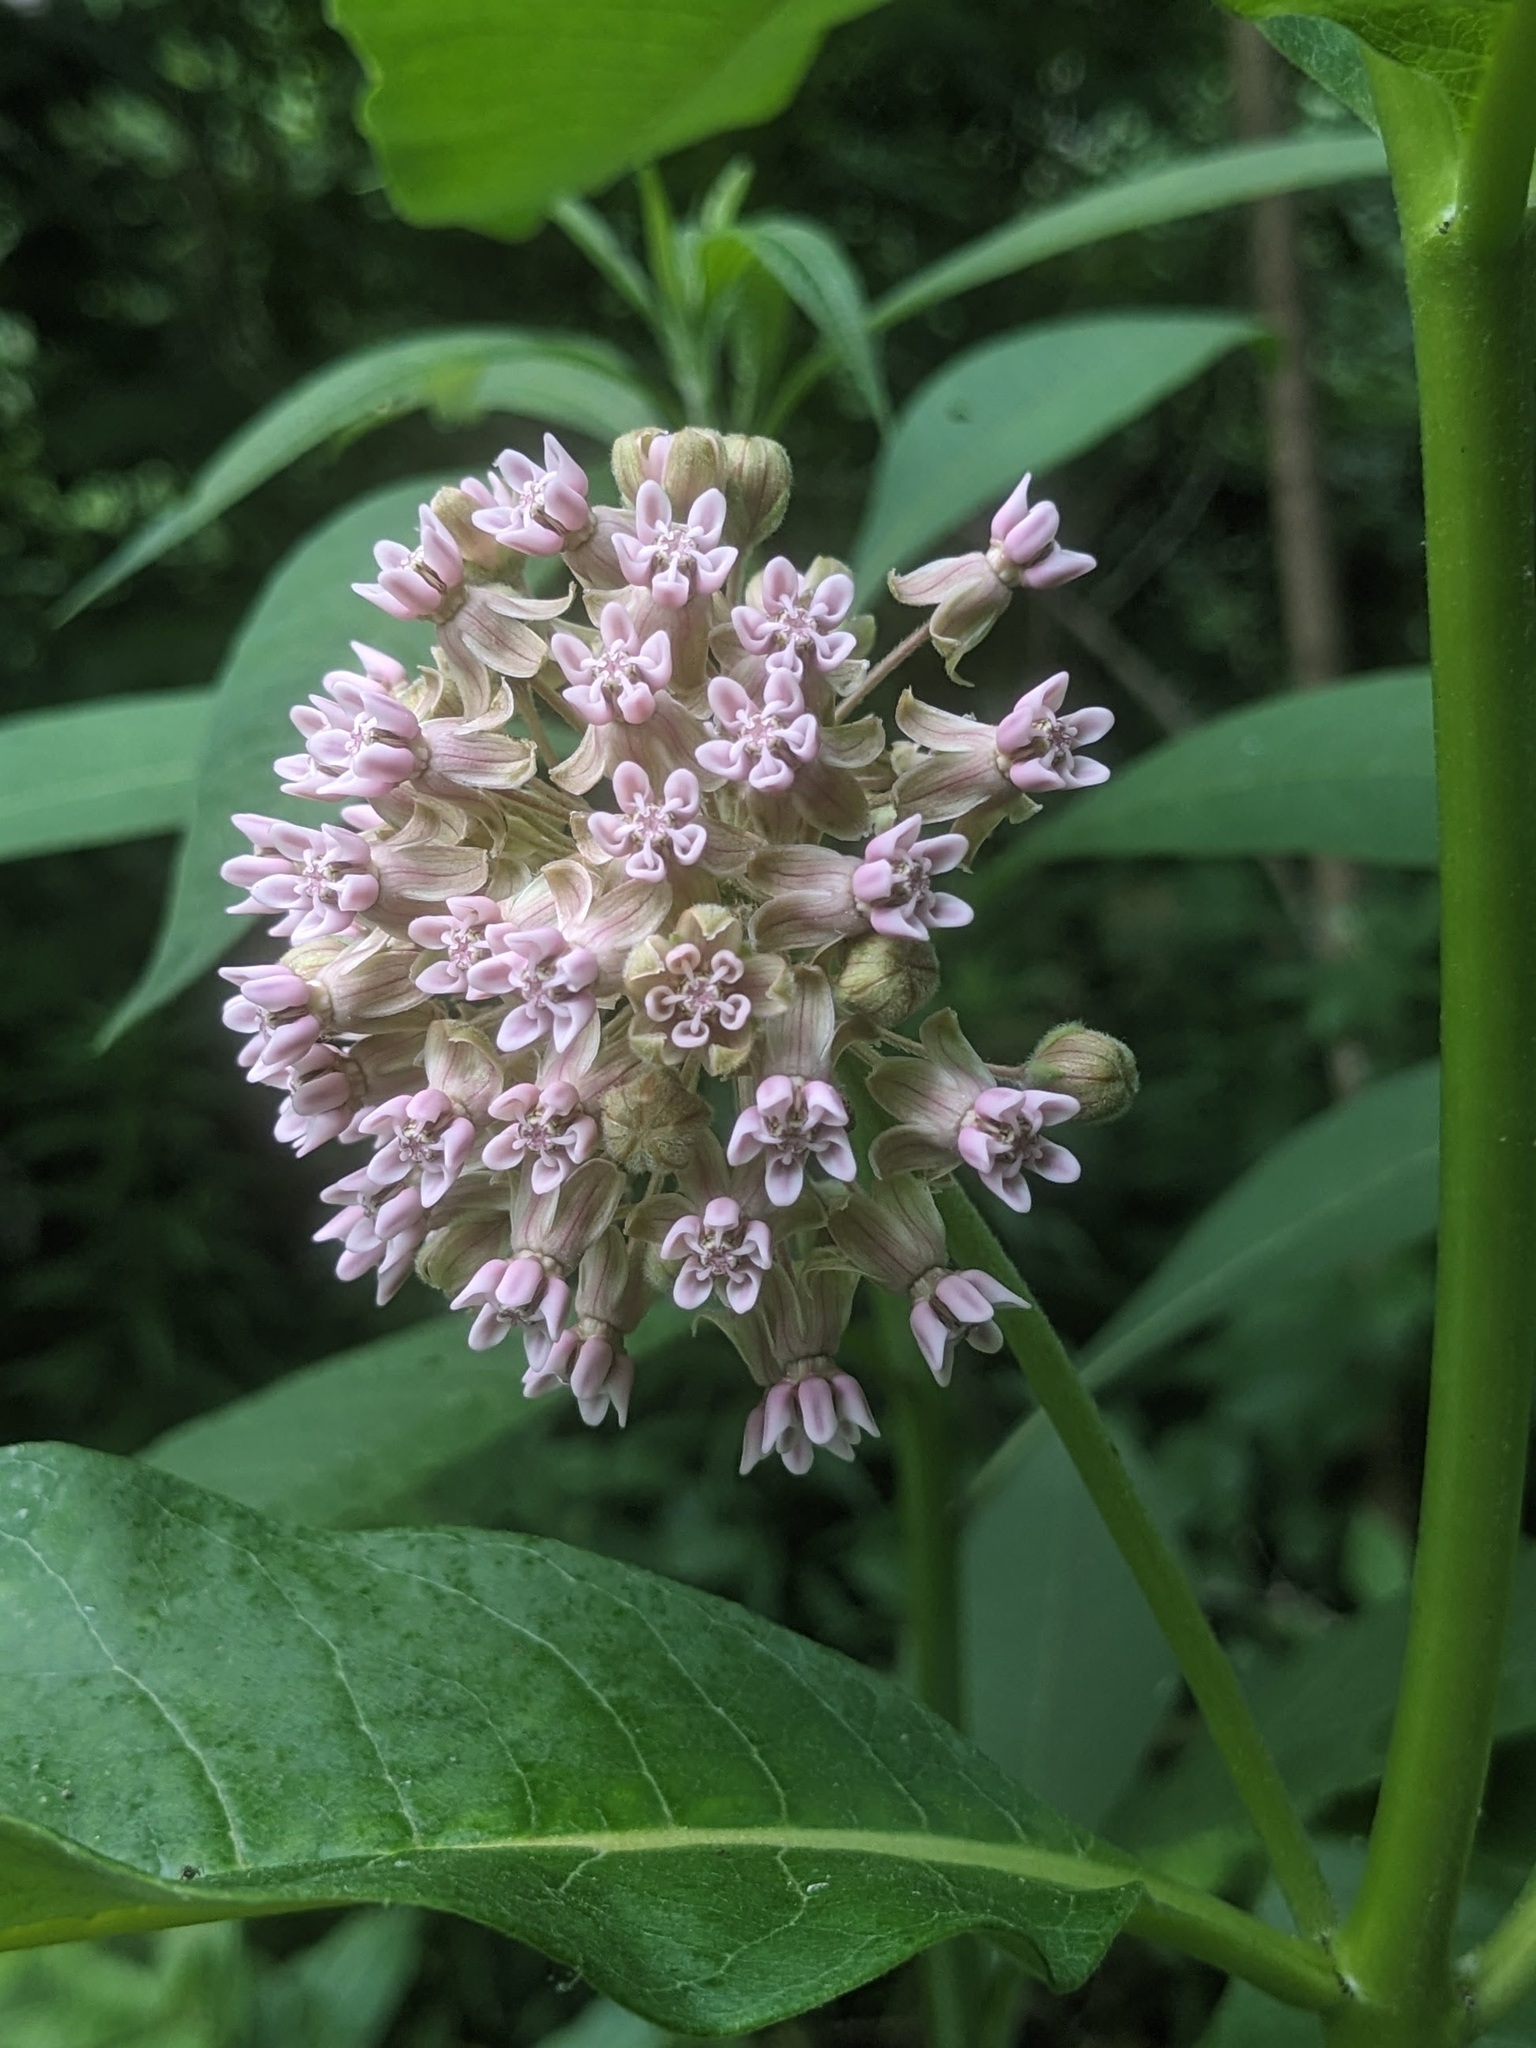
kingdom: Plantae
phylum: Tracheophyta
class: Magnoliopsida
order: Gentianales
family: Apocynaceae
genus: Asclepias
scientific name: Asclepias syriaca
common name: Common milkweed
